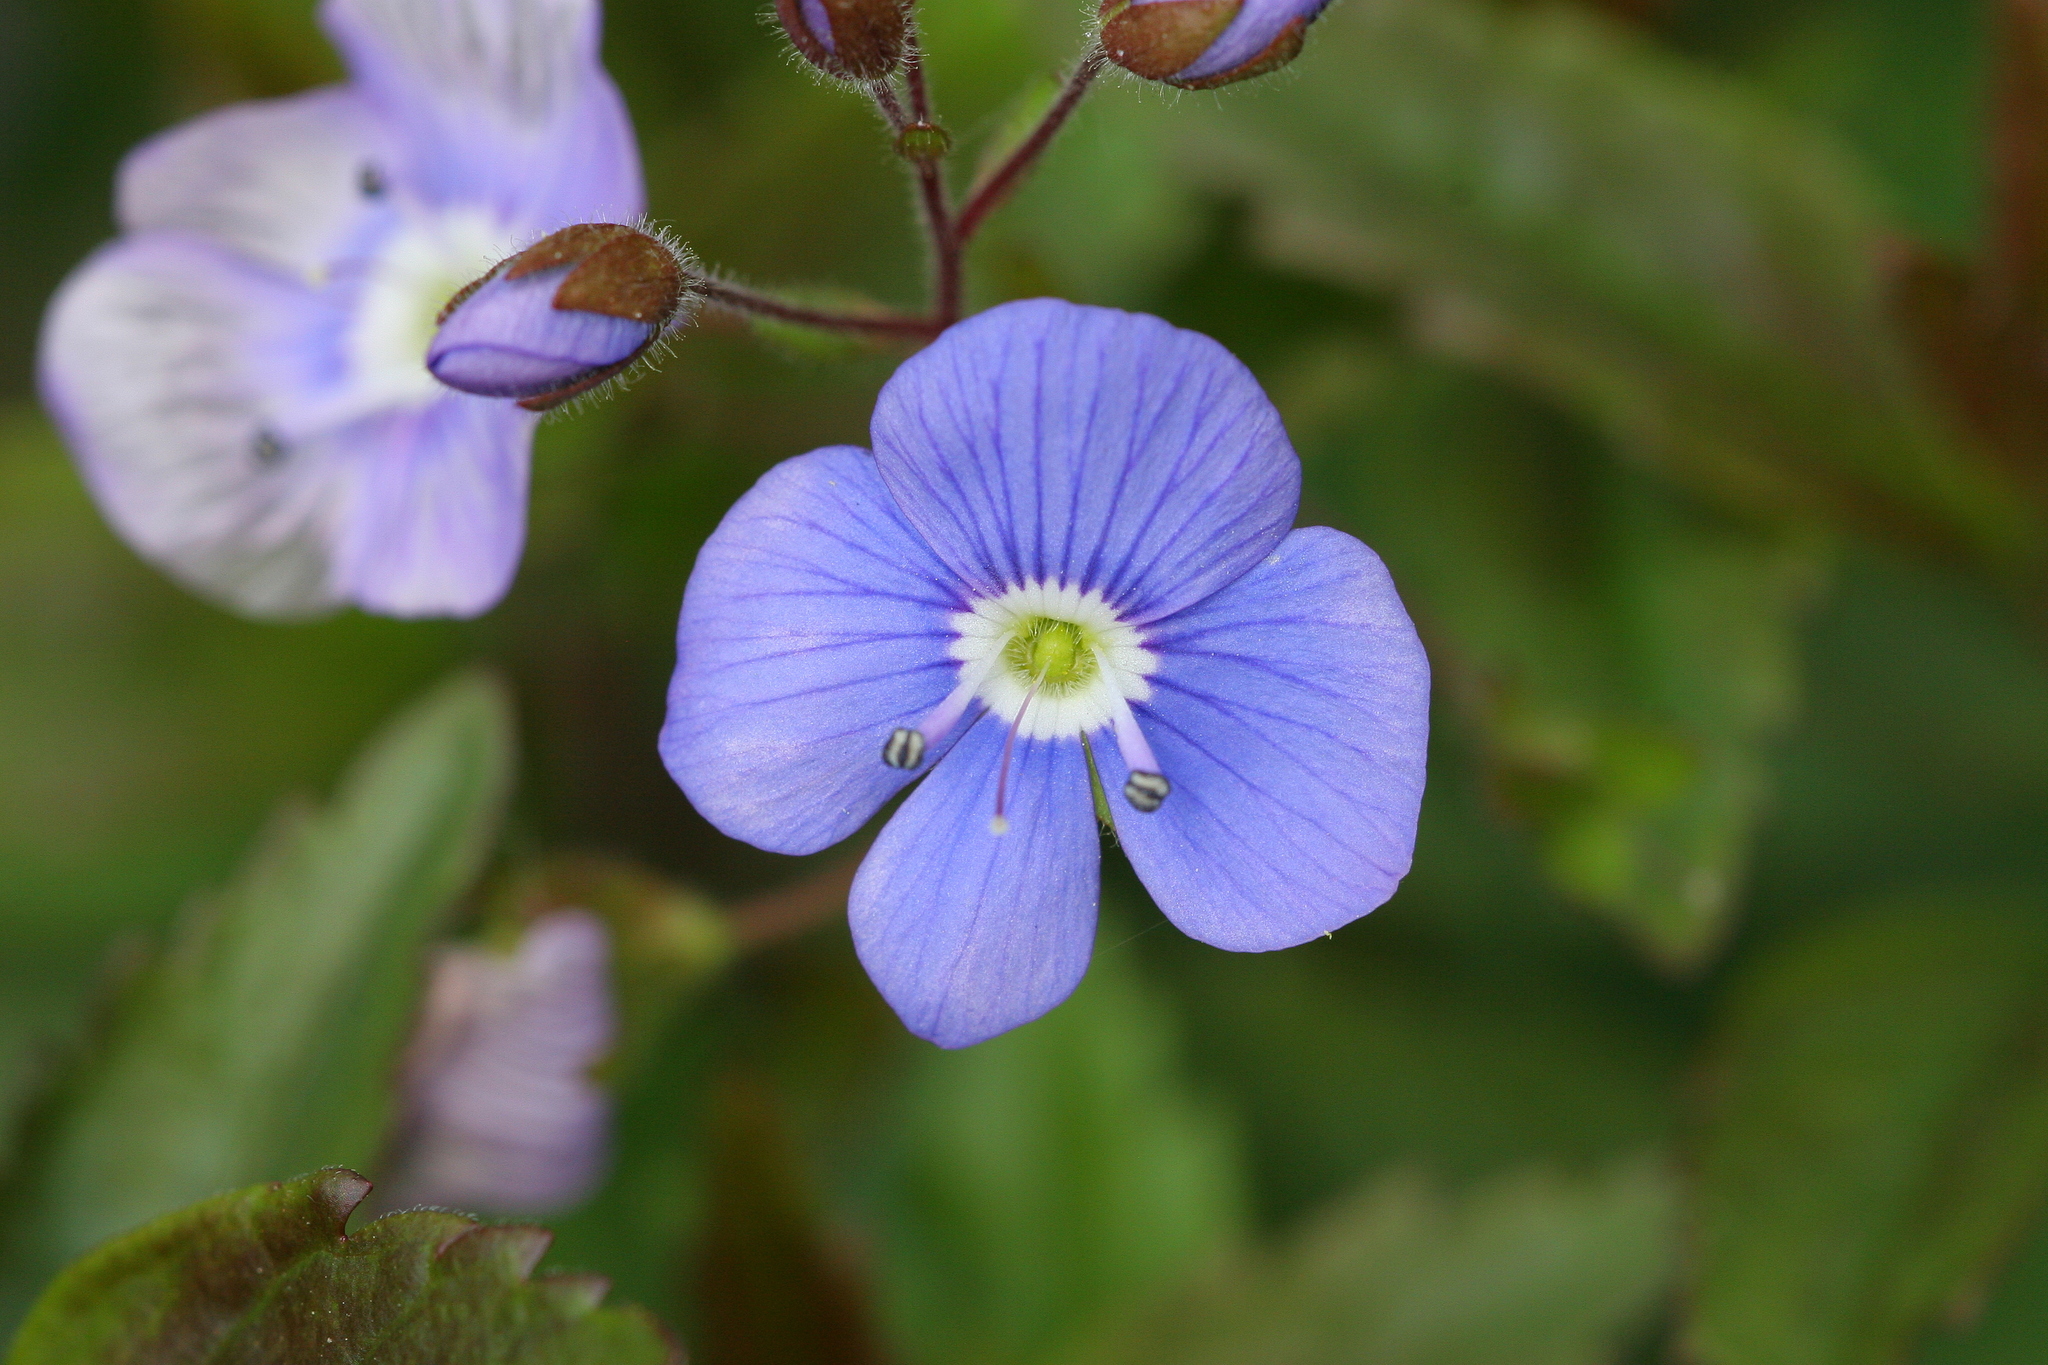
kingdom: Plantae
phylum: Tracheophyta
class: Magnoliopsida
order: Lamiales
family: Plantaginaceae
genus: Veronica
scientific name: Veronica chamaedrys
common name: Germander speedwell
